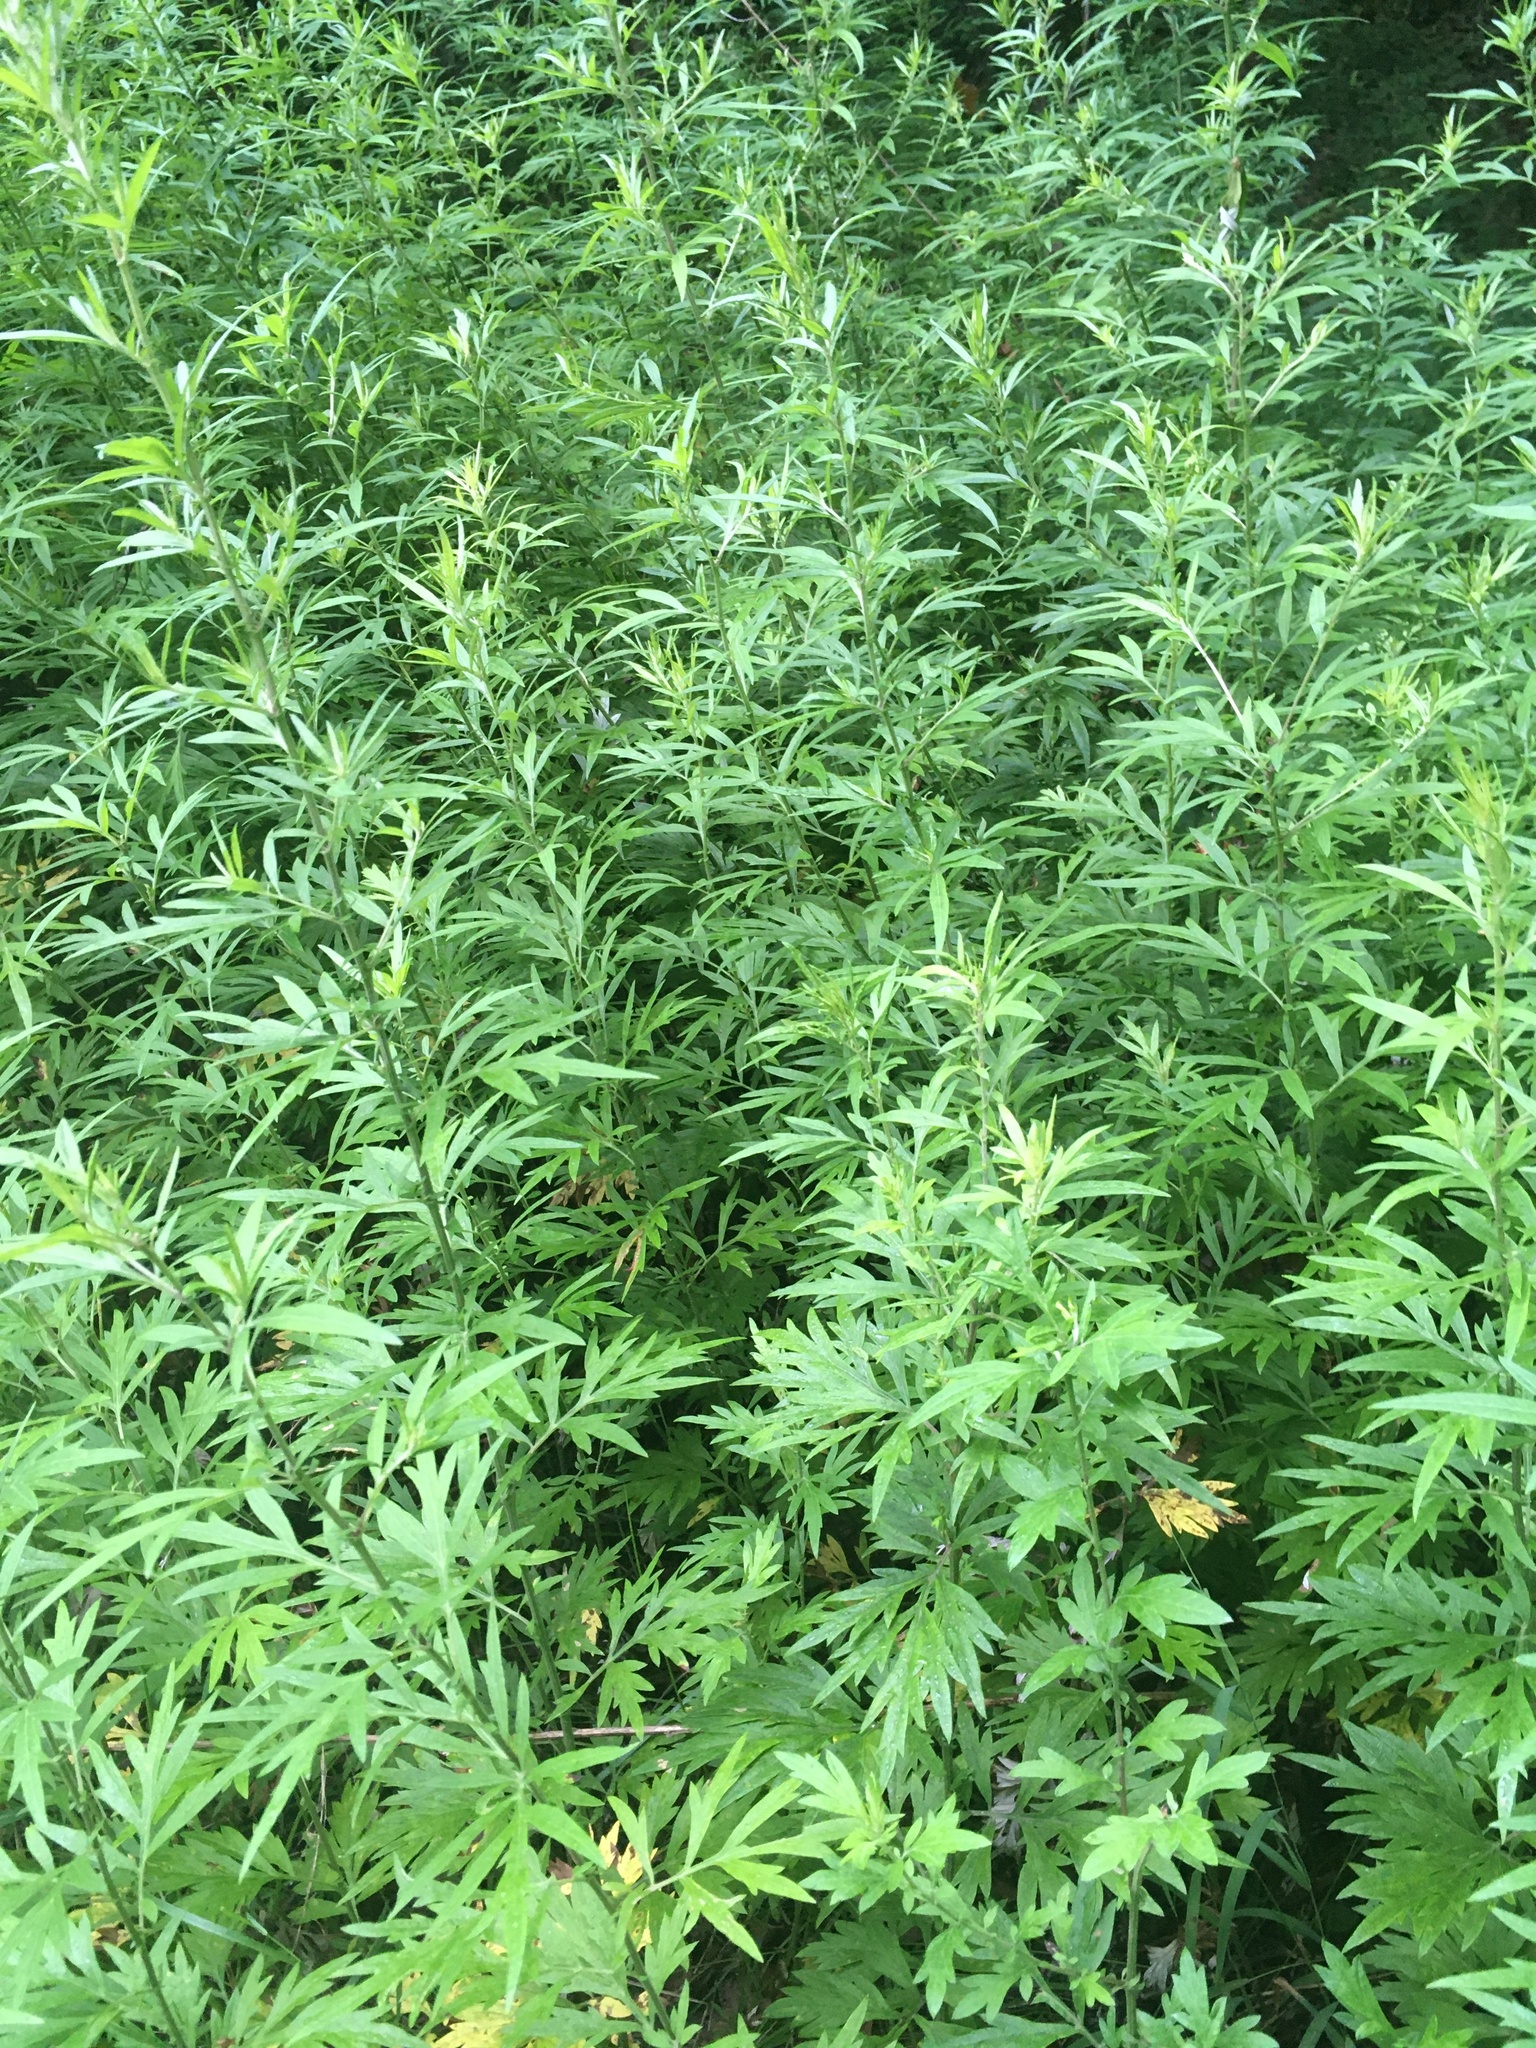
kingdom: Plantae
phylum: Tracheophyta
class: Magnoliopsida
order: Asterales
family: Asteraceae
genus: Artemisia
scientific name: Artemisia vulgaris
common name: Mugwort
